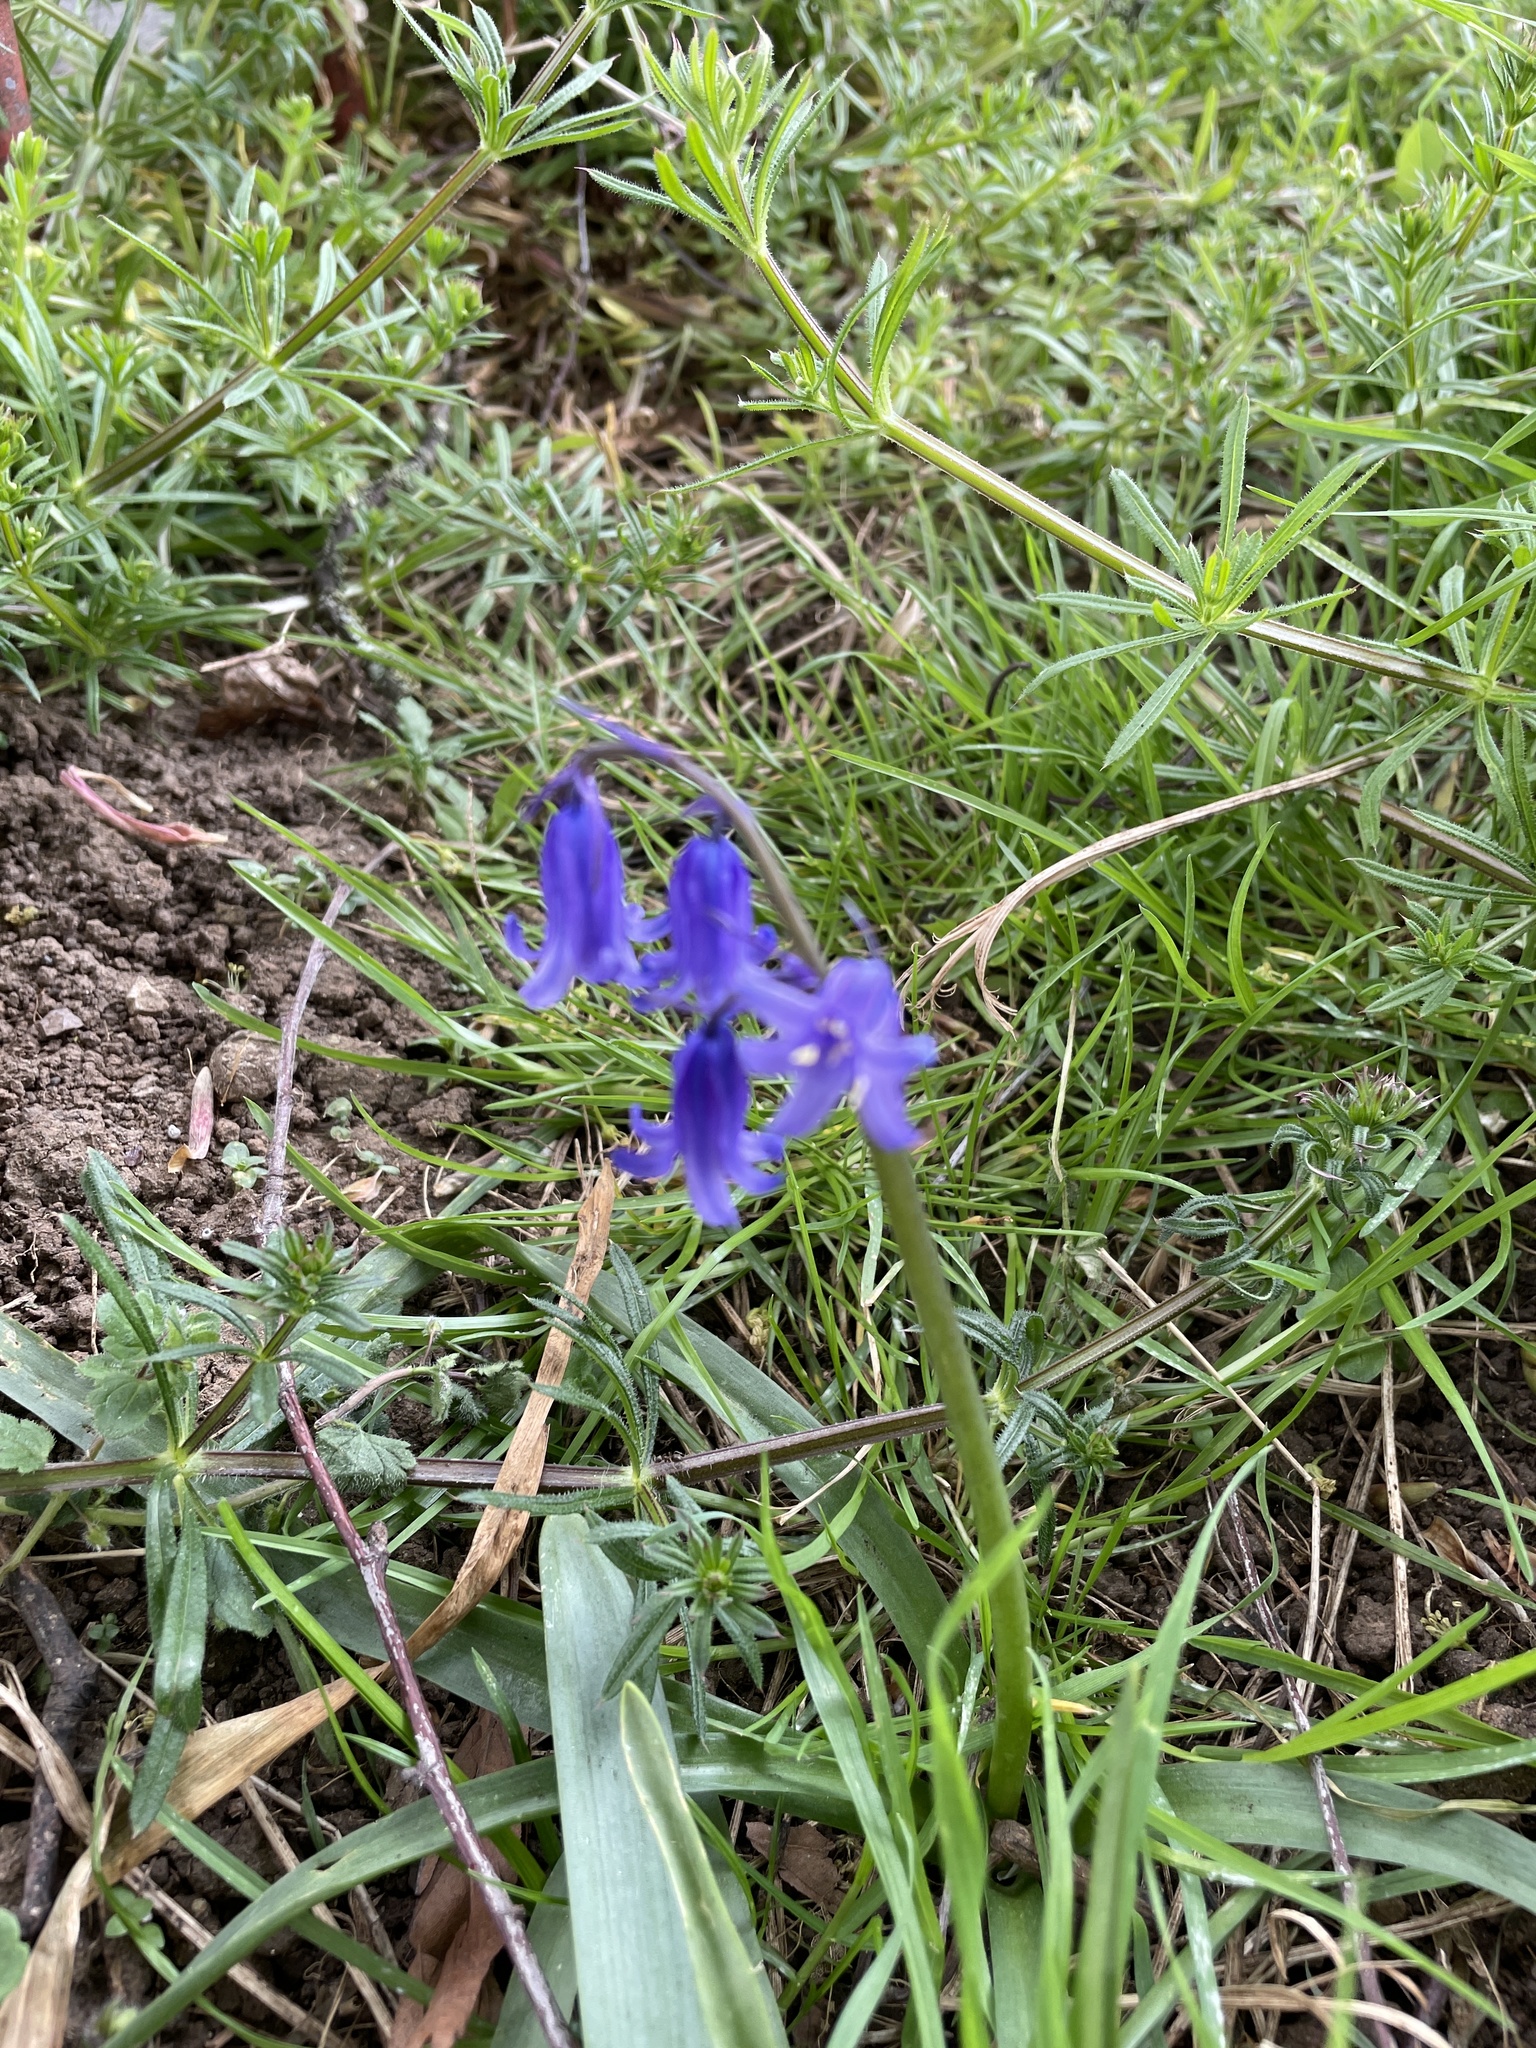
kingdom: Plantae
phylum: Tracheophyta
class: Liliopsida
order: Asparagales
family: Asparagaceae
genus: Hyacinthoides
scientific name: Hyacinthoides non-scripta
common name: Bluebell
